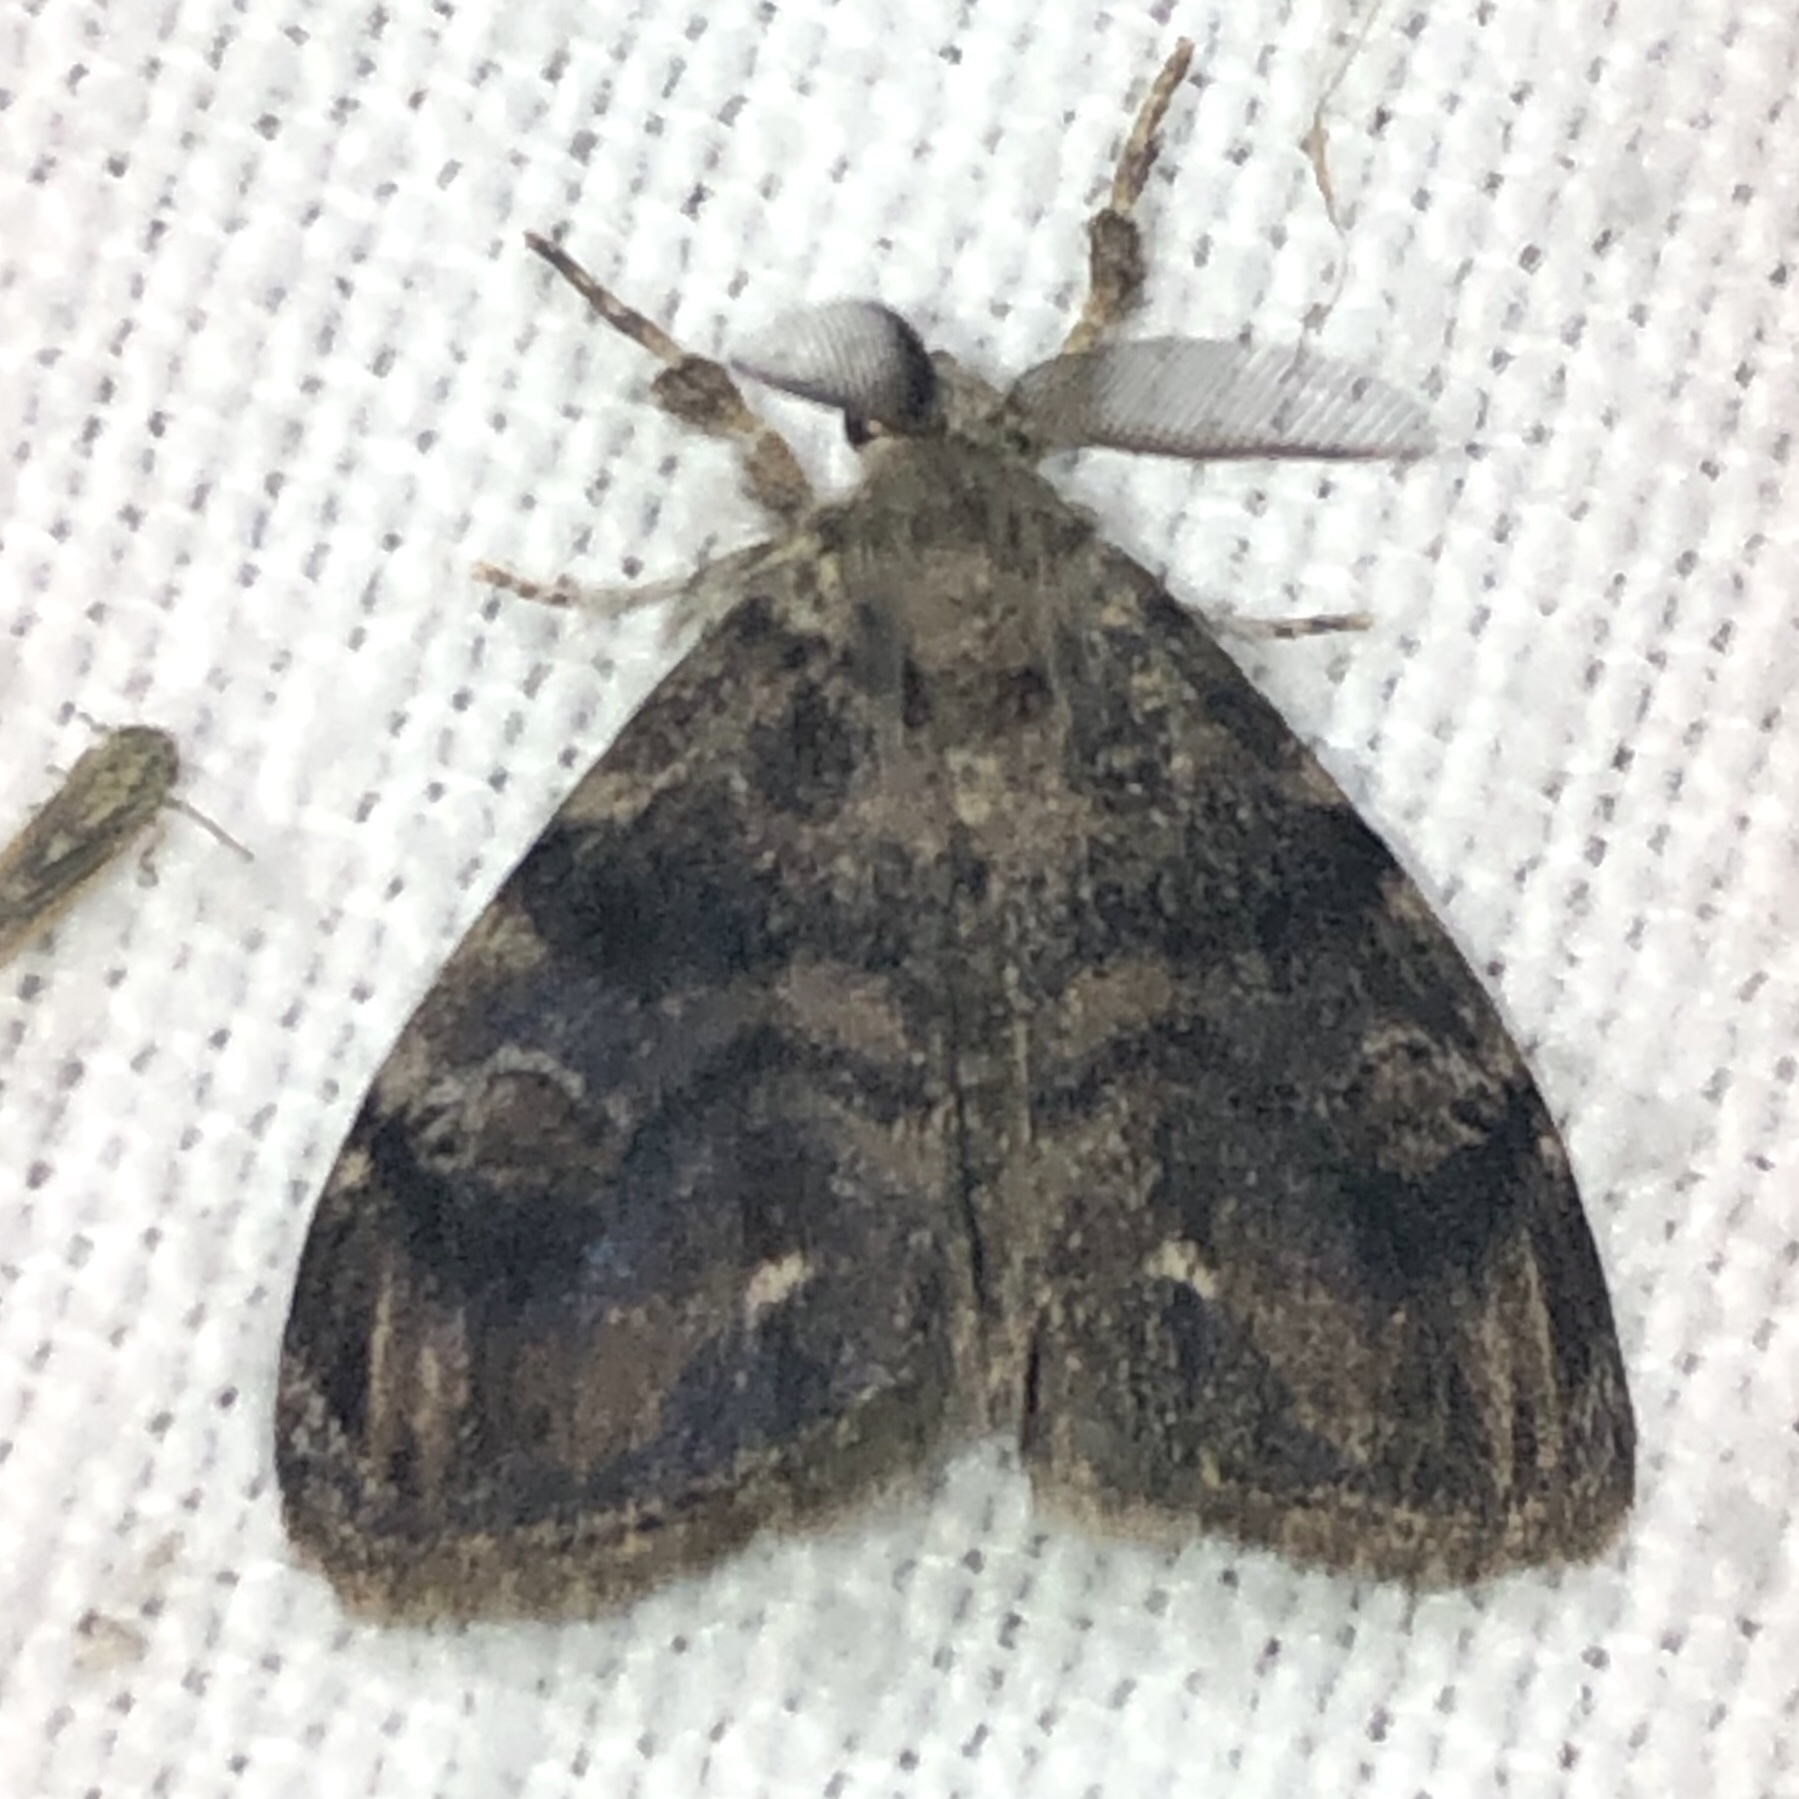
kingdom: Animalia
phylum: Arthropoda
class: Insecta
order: Lepidoptera
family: Erebidae
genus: Orgyia
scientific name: Orgyia definita
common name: Definite tussock moth
